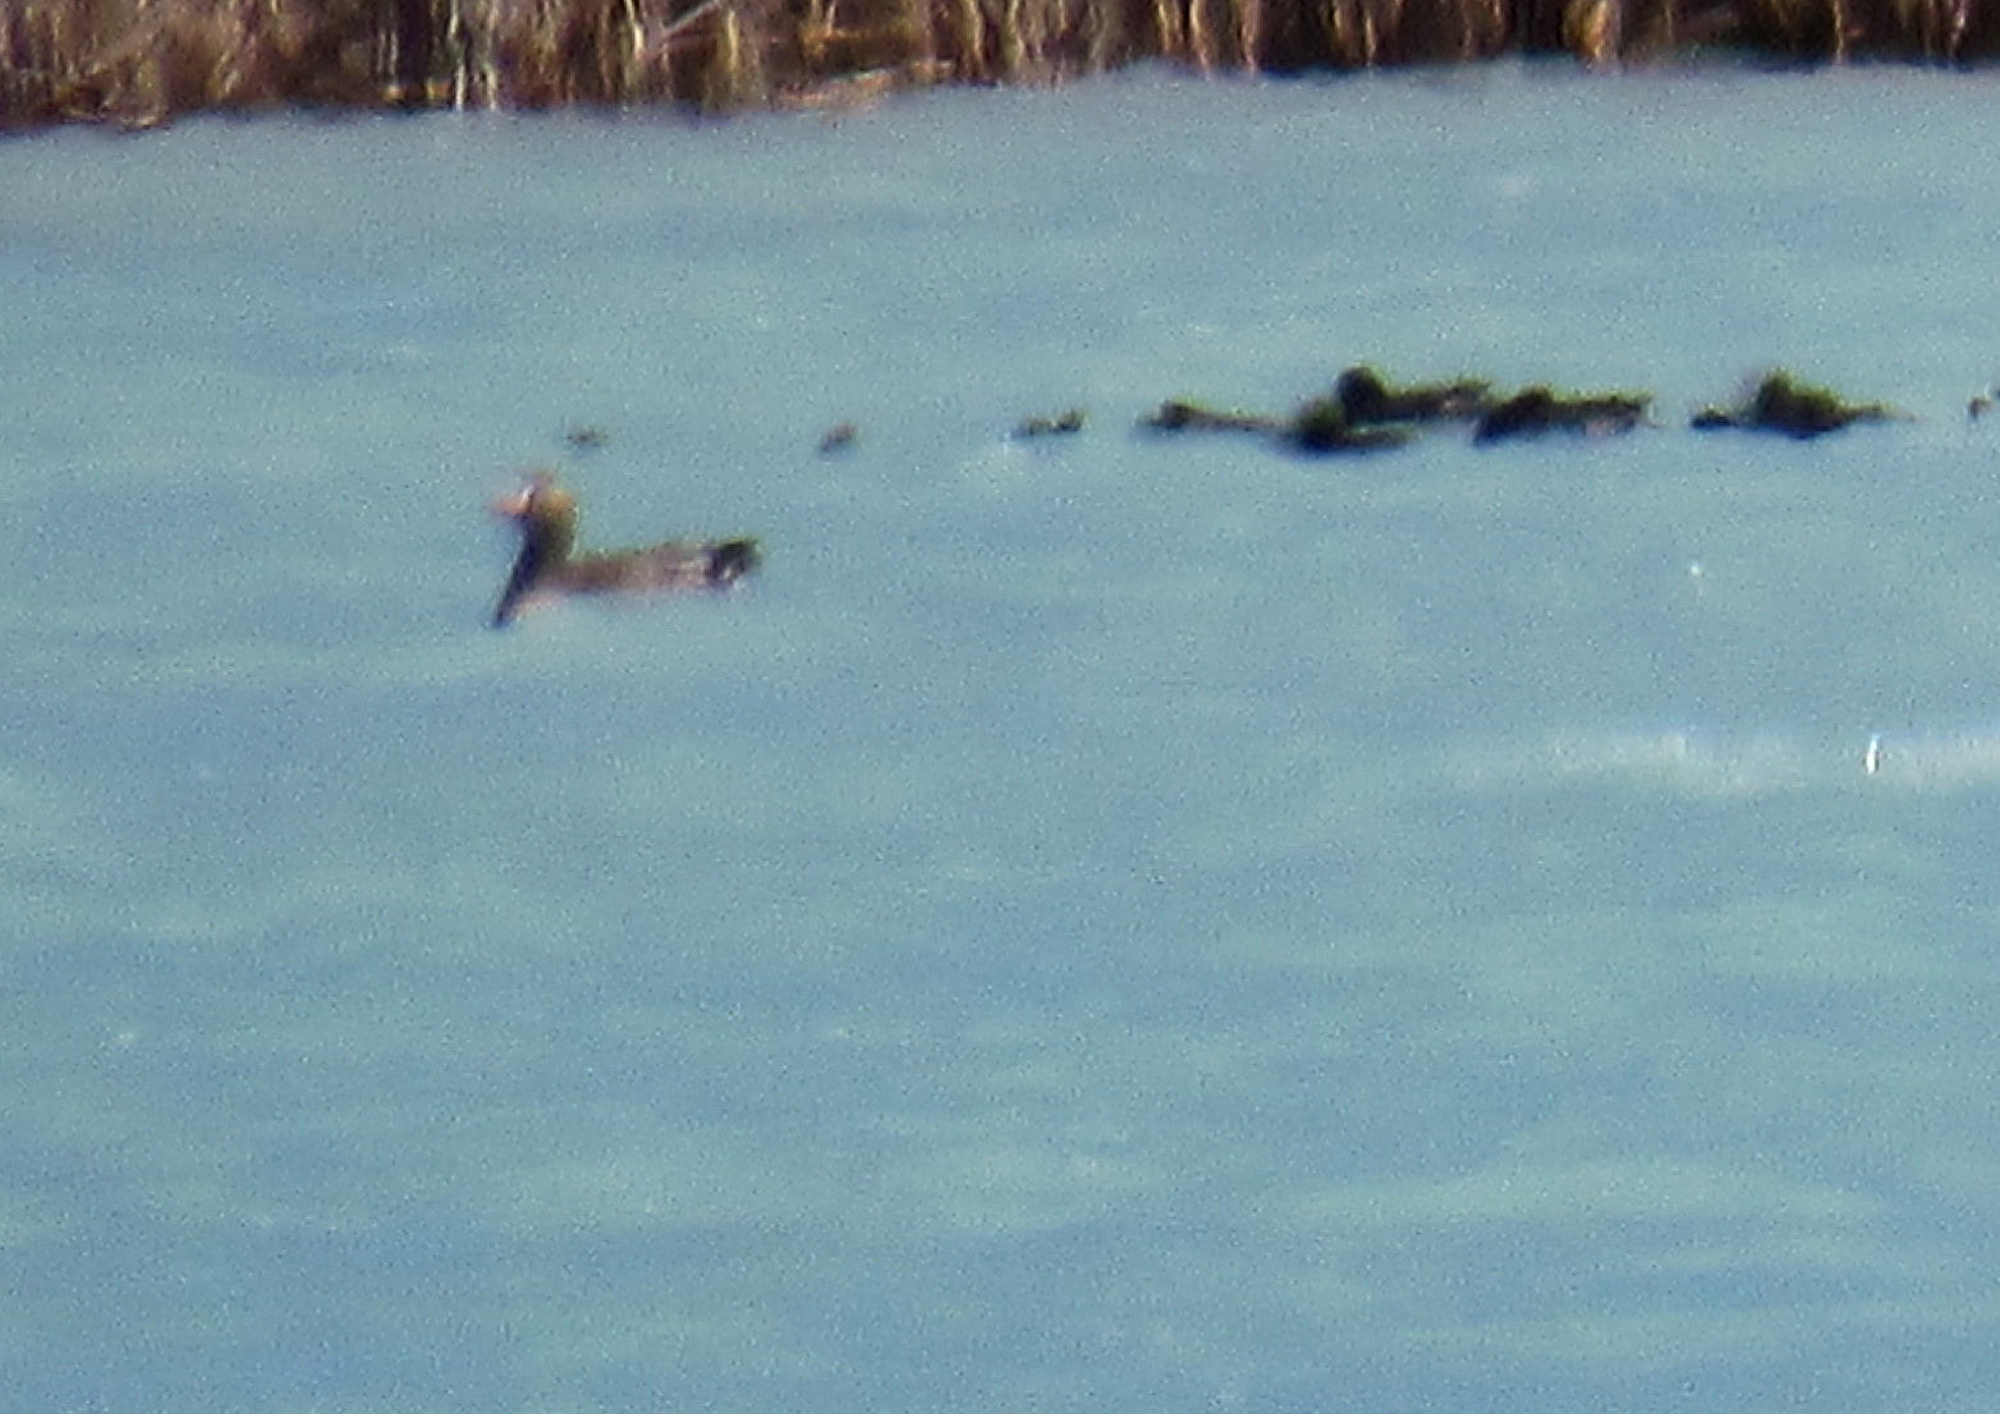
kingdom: Animalia
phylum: Chordata
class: Aves
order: Anseriformes
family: Anatidae
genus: Anser
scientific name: Anser albifrons
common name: Greater white-fronted goose
